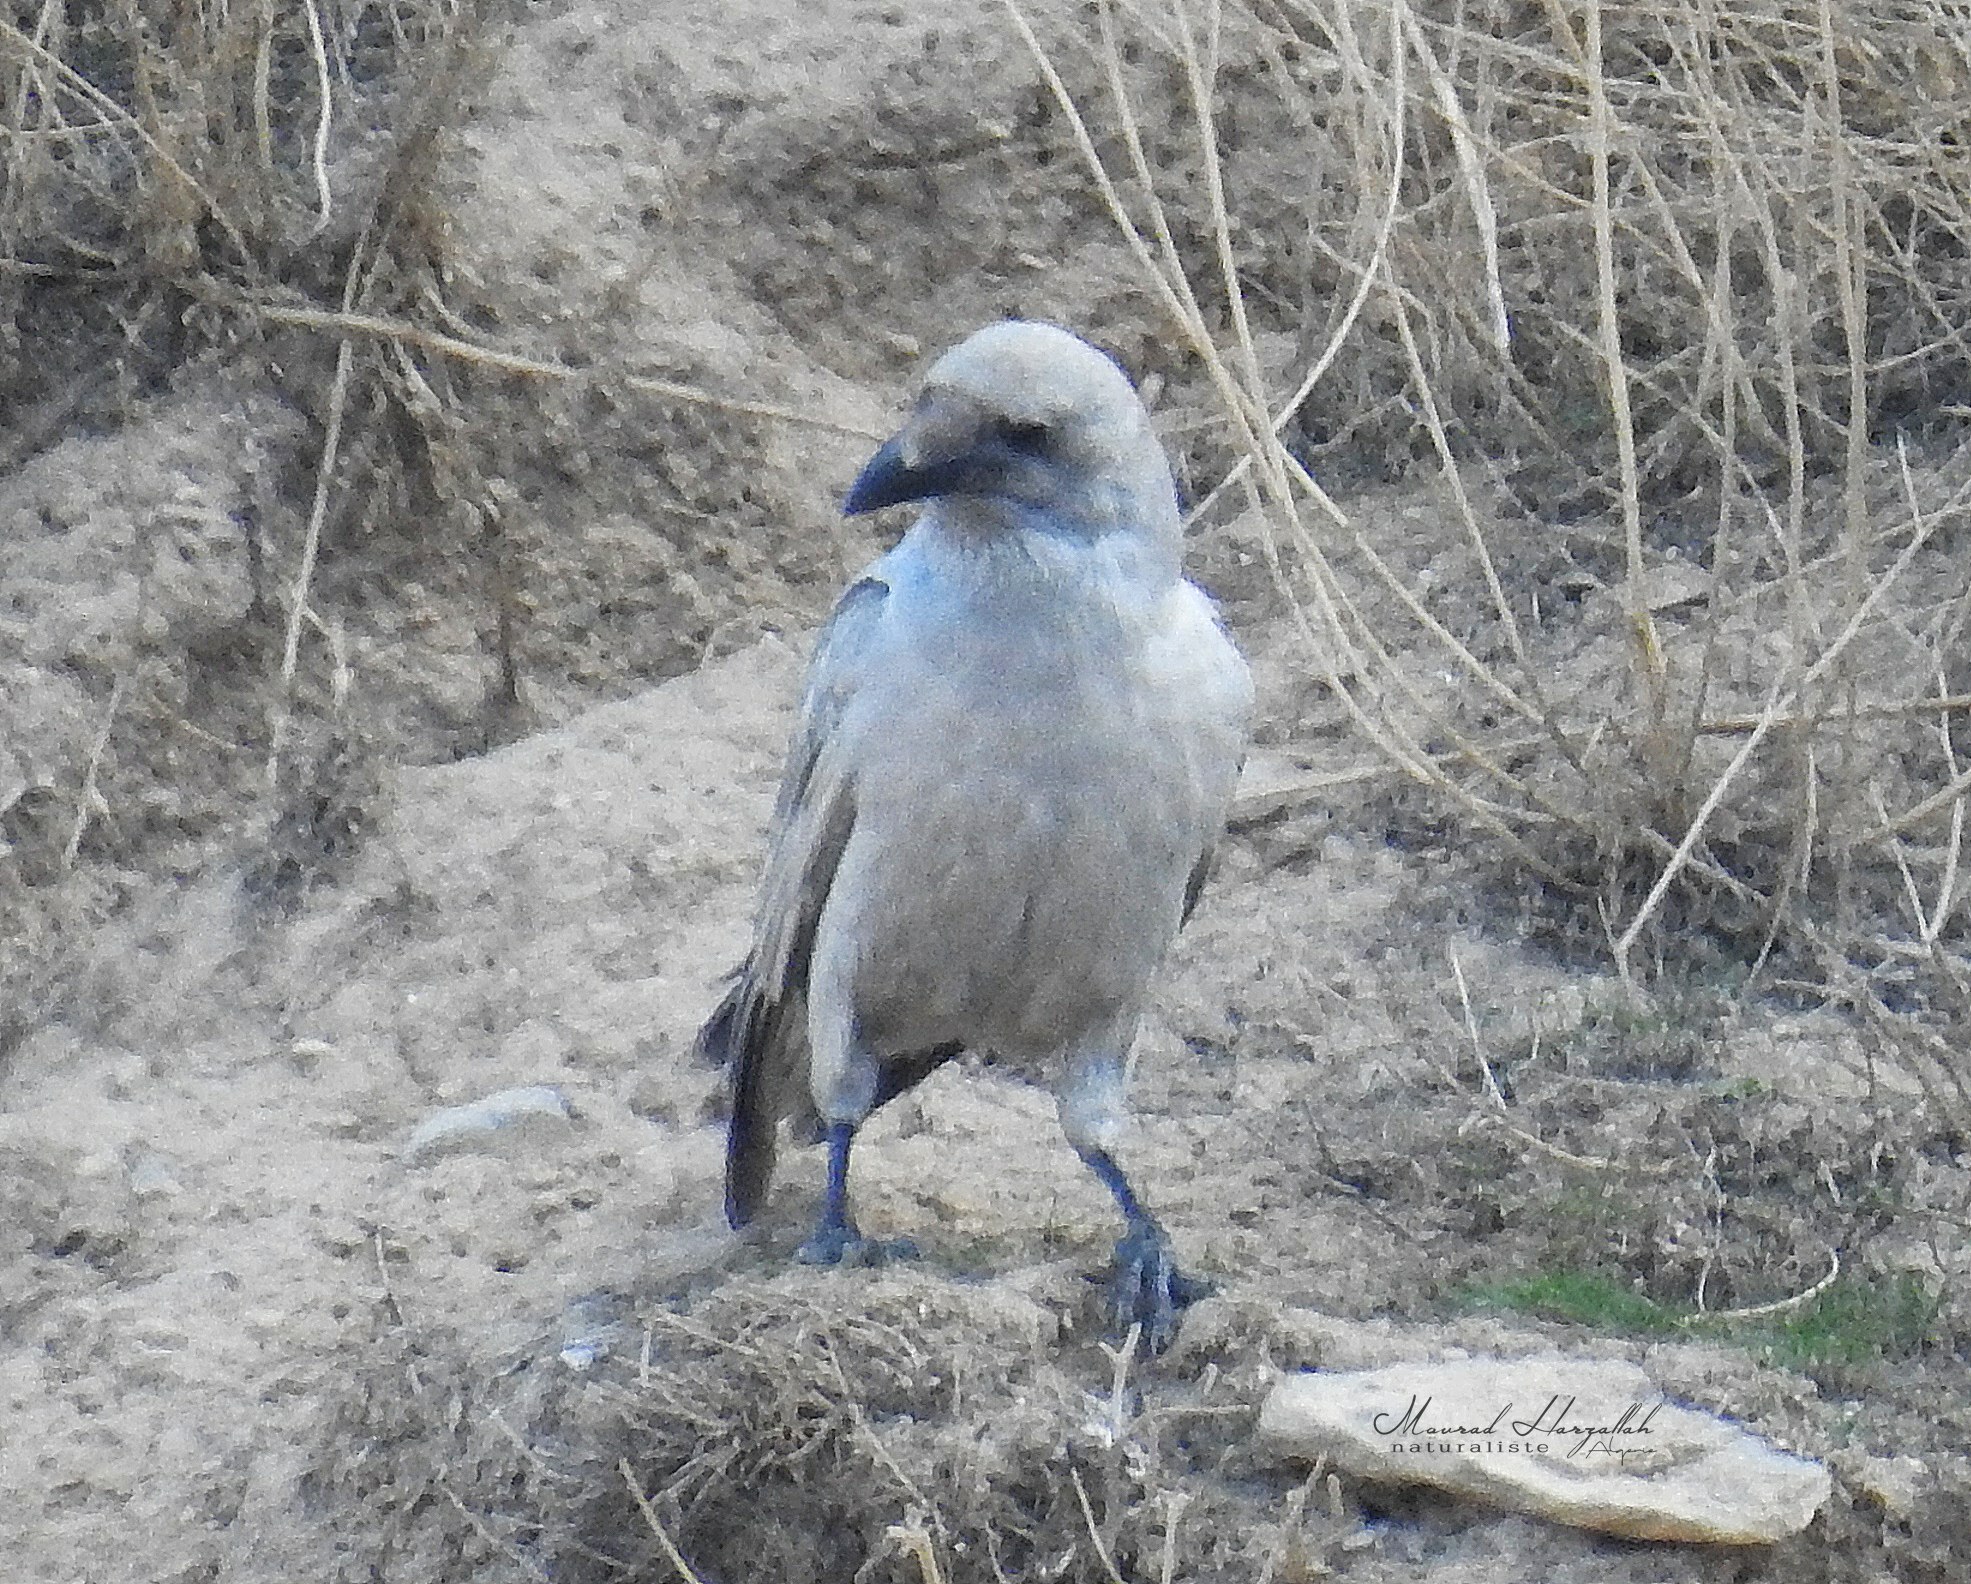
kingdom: Animalia
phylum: Chordata
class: Aves
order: Passeriformes
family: Corvidae
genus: Corvus
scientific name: Corvus corax
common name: Common raven
